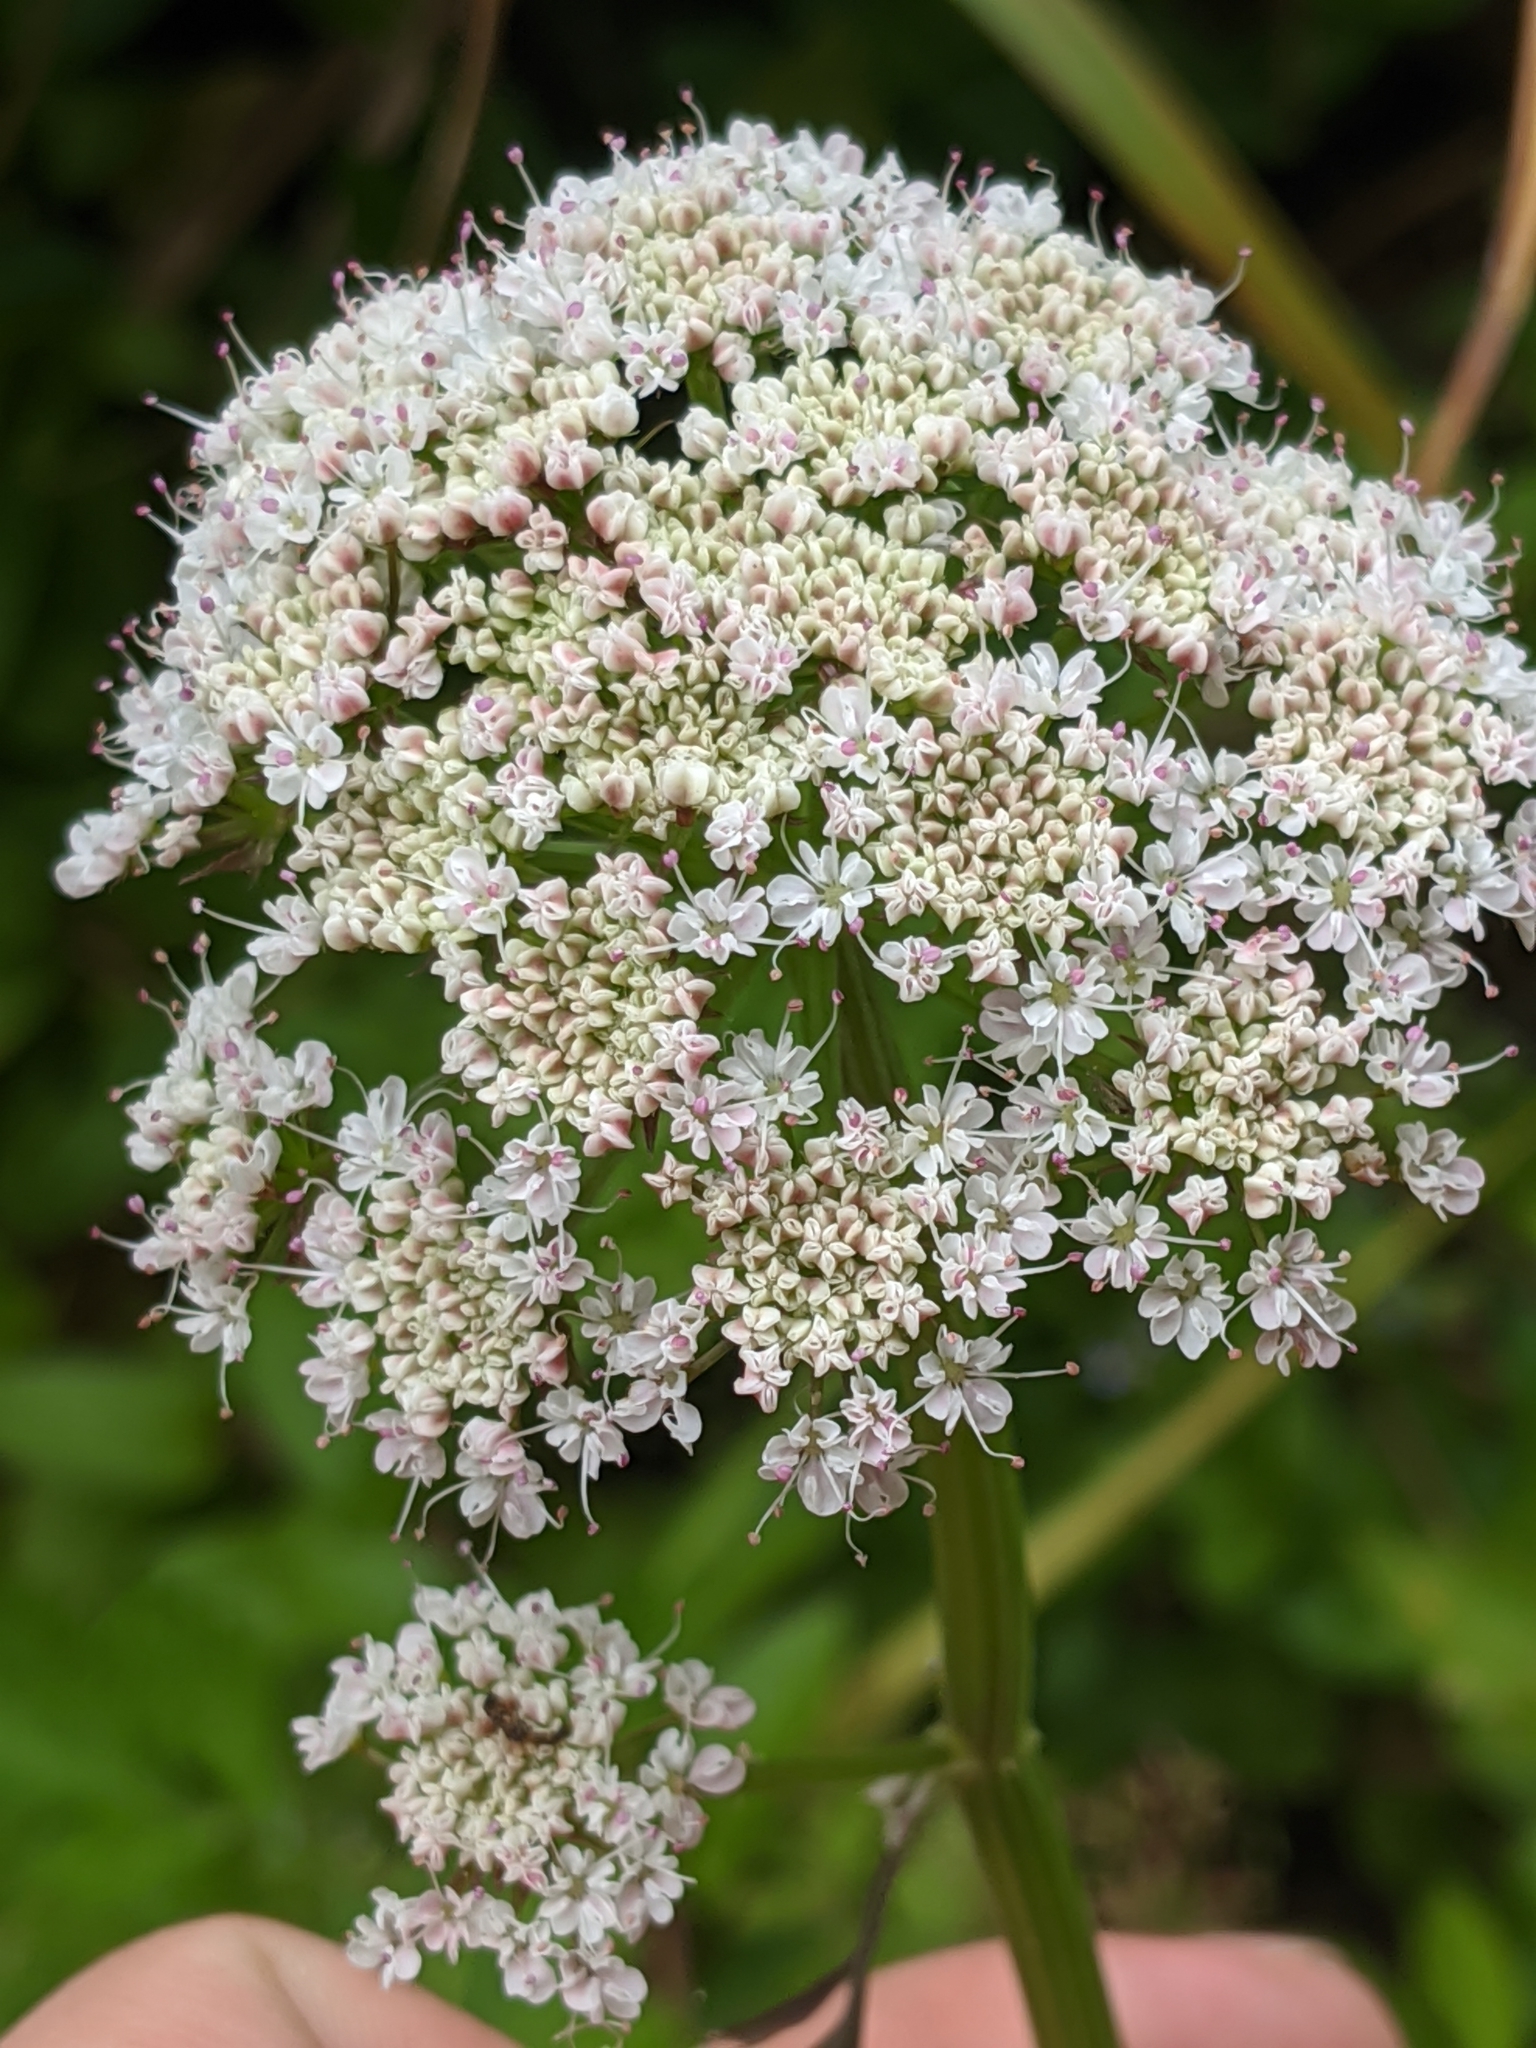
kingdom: Plantae
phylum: Tracheophyta
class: Magnoliopsida
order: Apiales
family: Apiaceae
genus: Oenanthe
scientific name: Oenanthe sarmentosa
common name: American water-parsley
